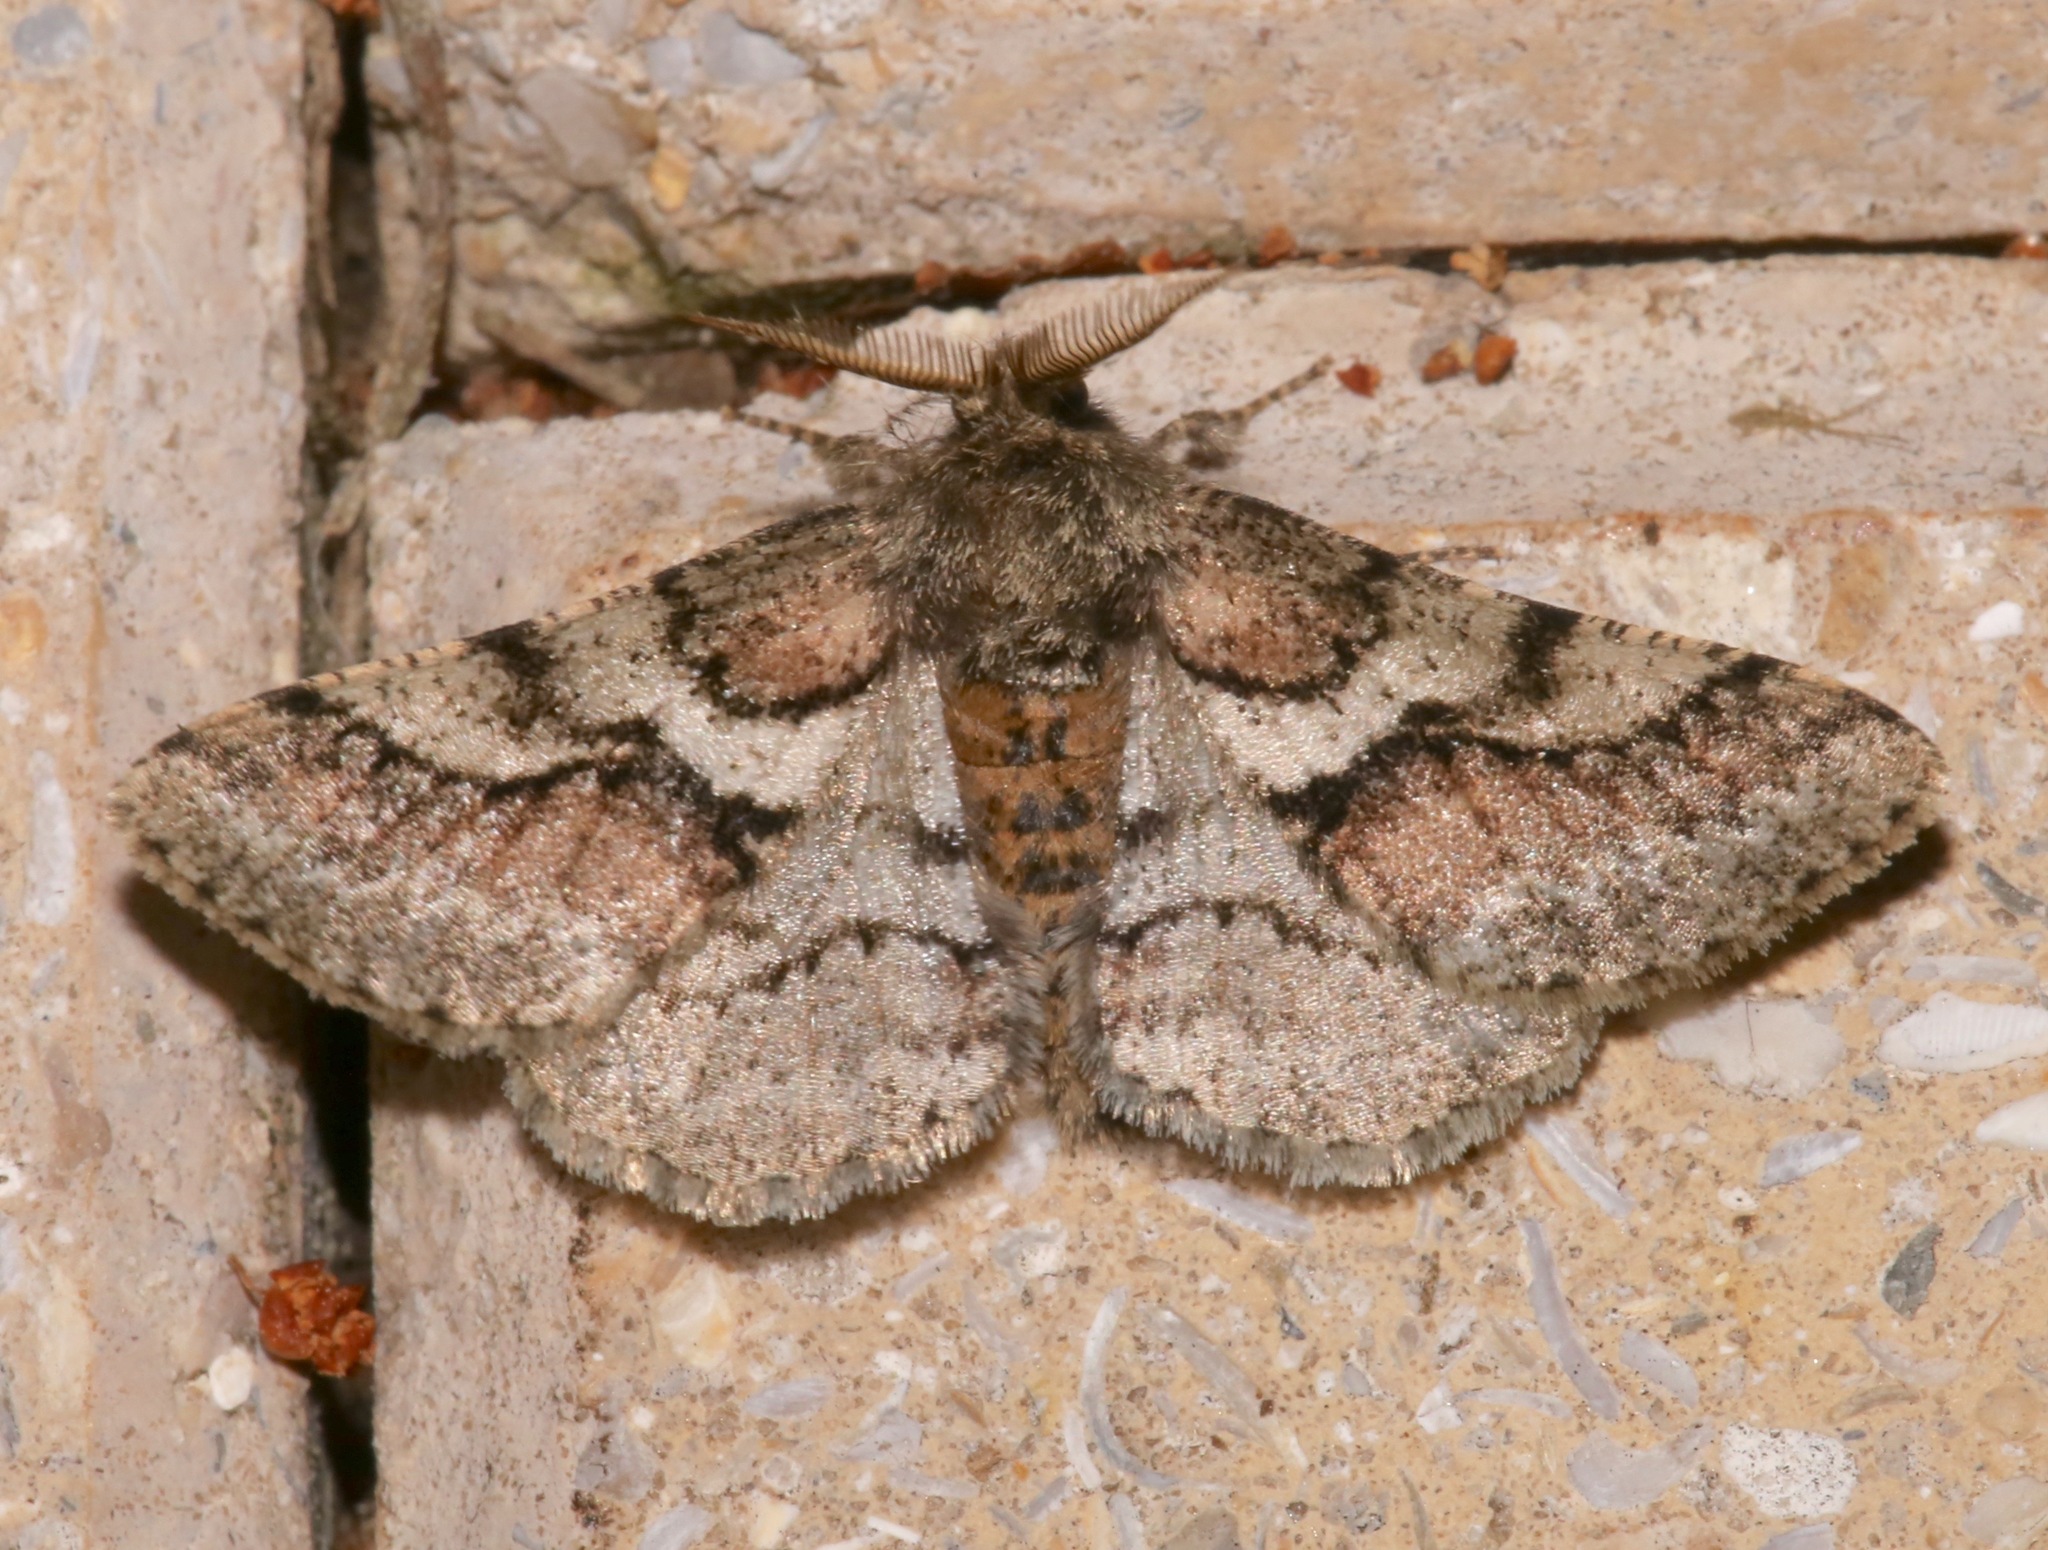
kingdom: Animalia
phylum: Arthropoda
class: Insecta
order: Lepidoptera
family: Geometridae
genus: Lycia
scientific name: Lycia ypsilon
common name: Wooly gray
